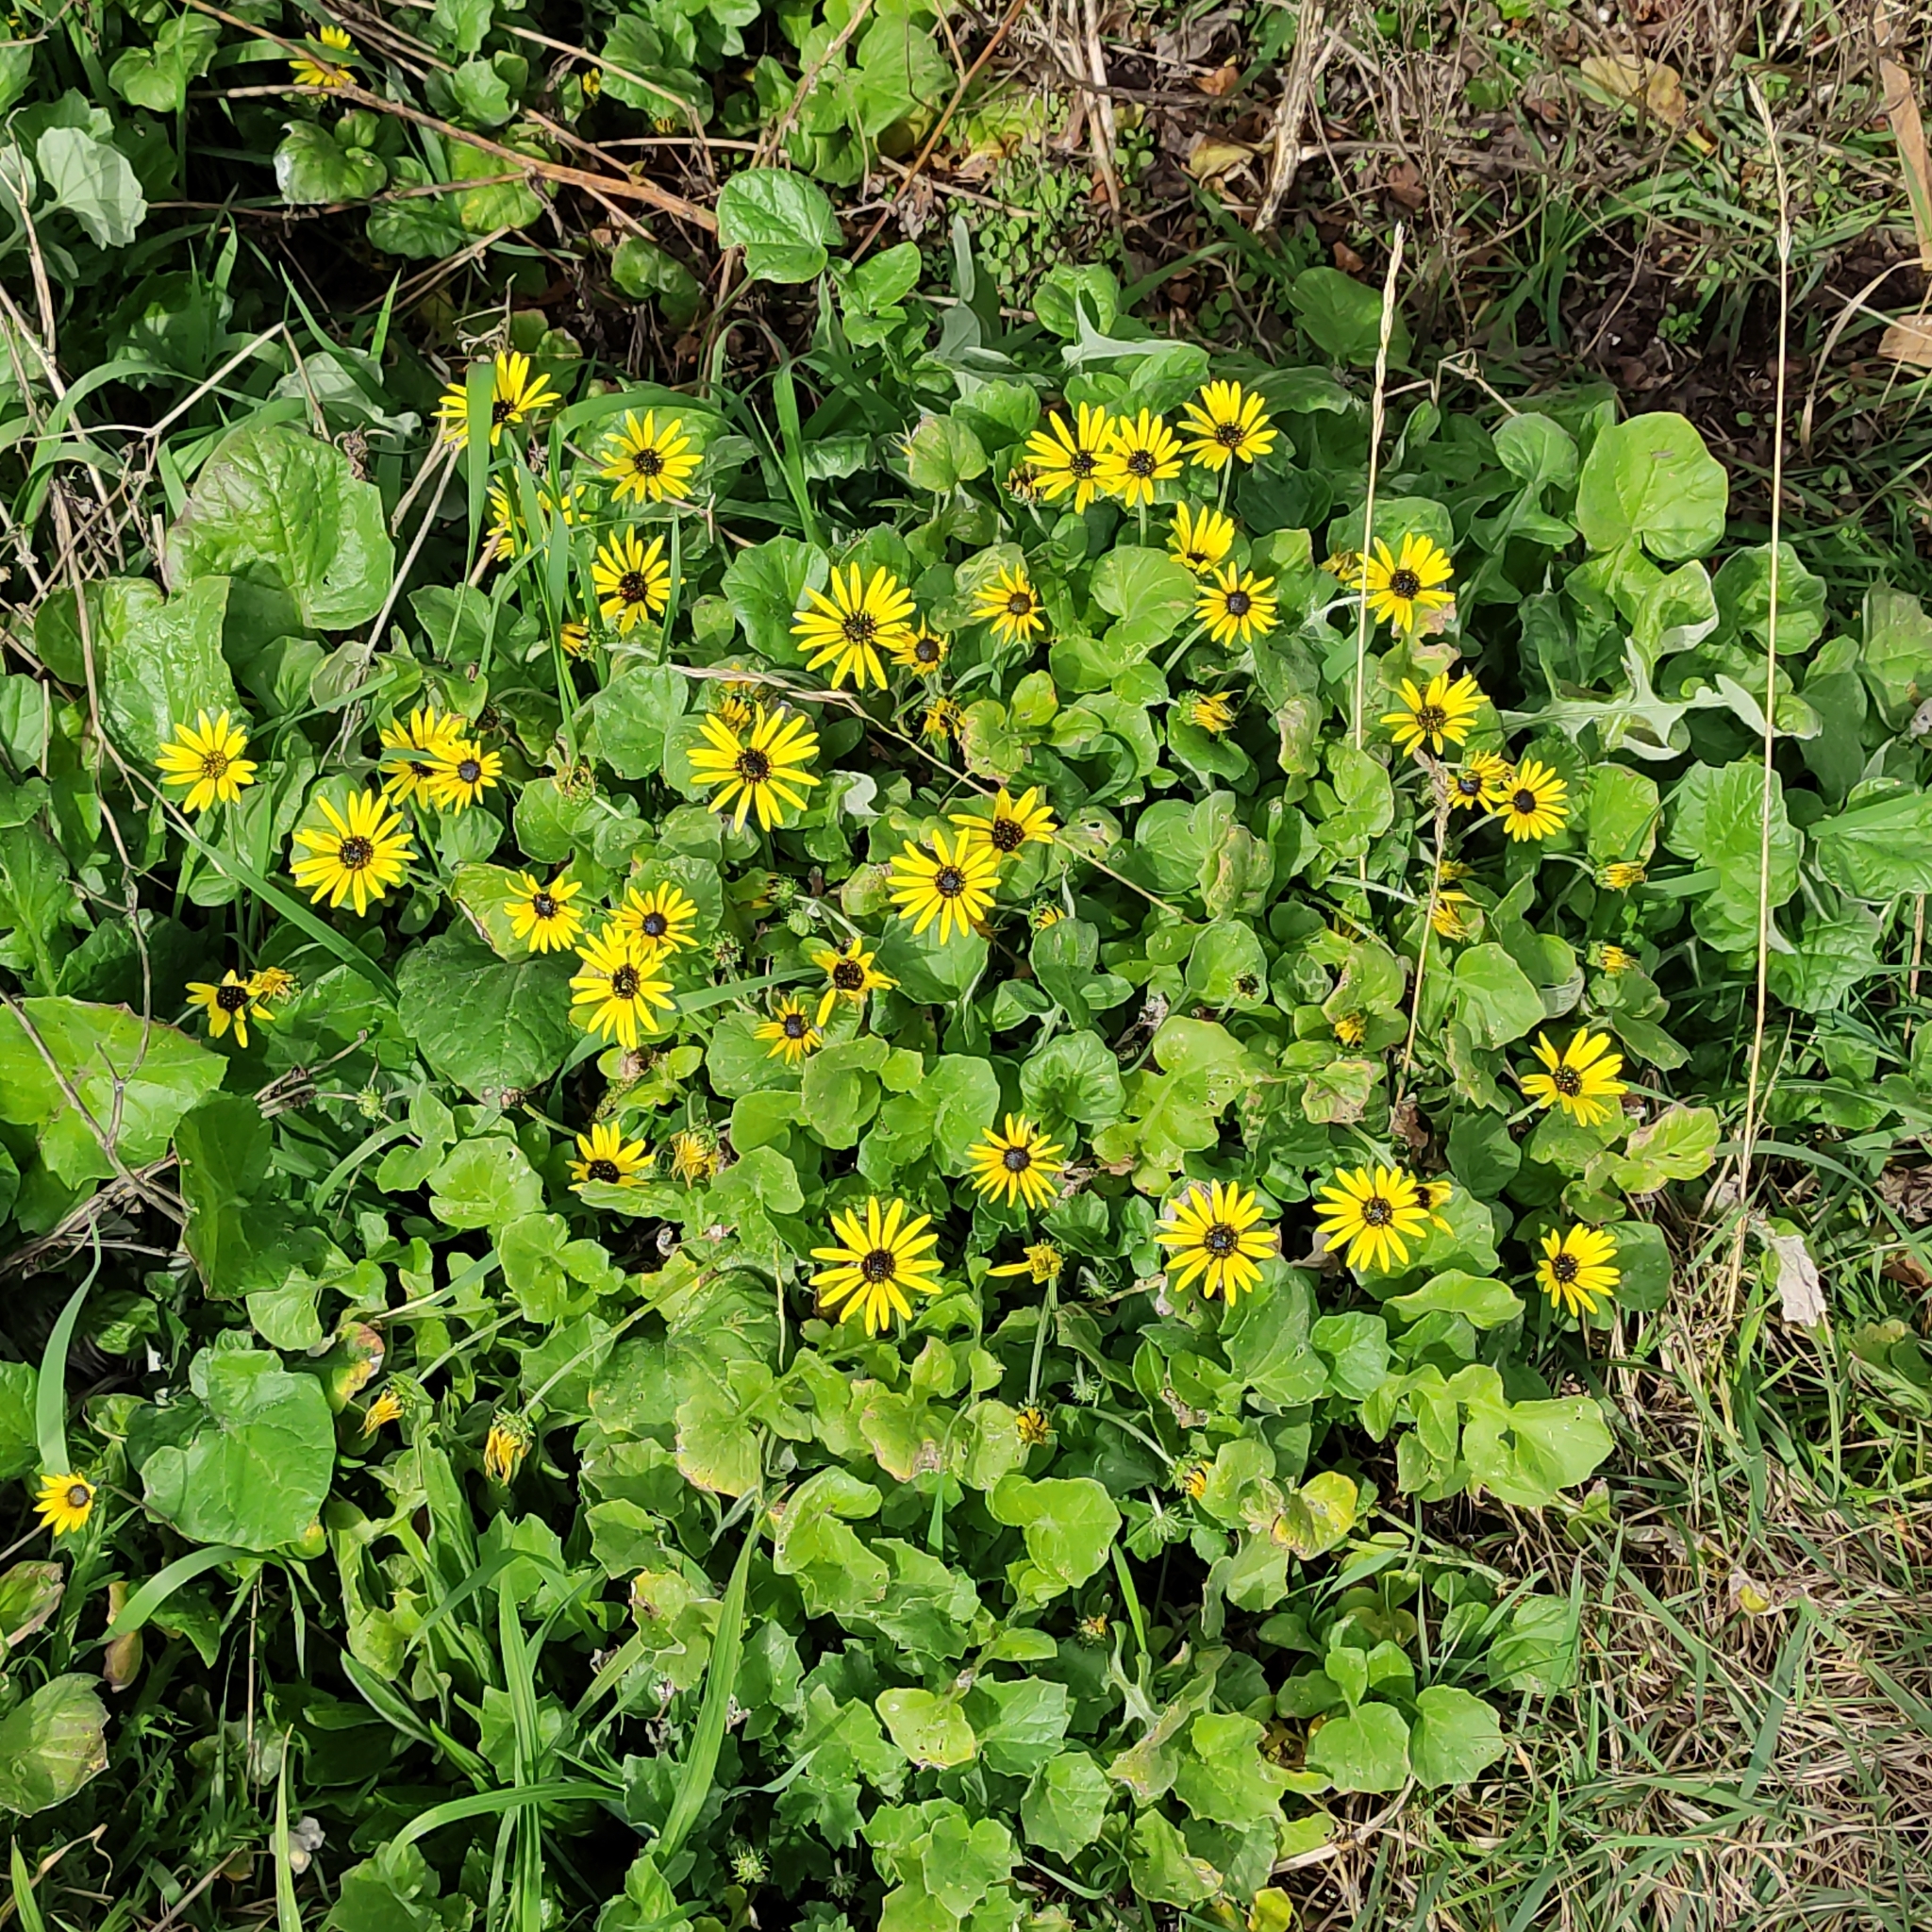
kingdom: Plantae
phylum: Tracheophyta
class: Magnoliopsida
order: Asterales
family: Asteraceae
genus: Arctotheca
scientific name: Arctotheca calendula
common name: Capeweed
